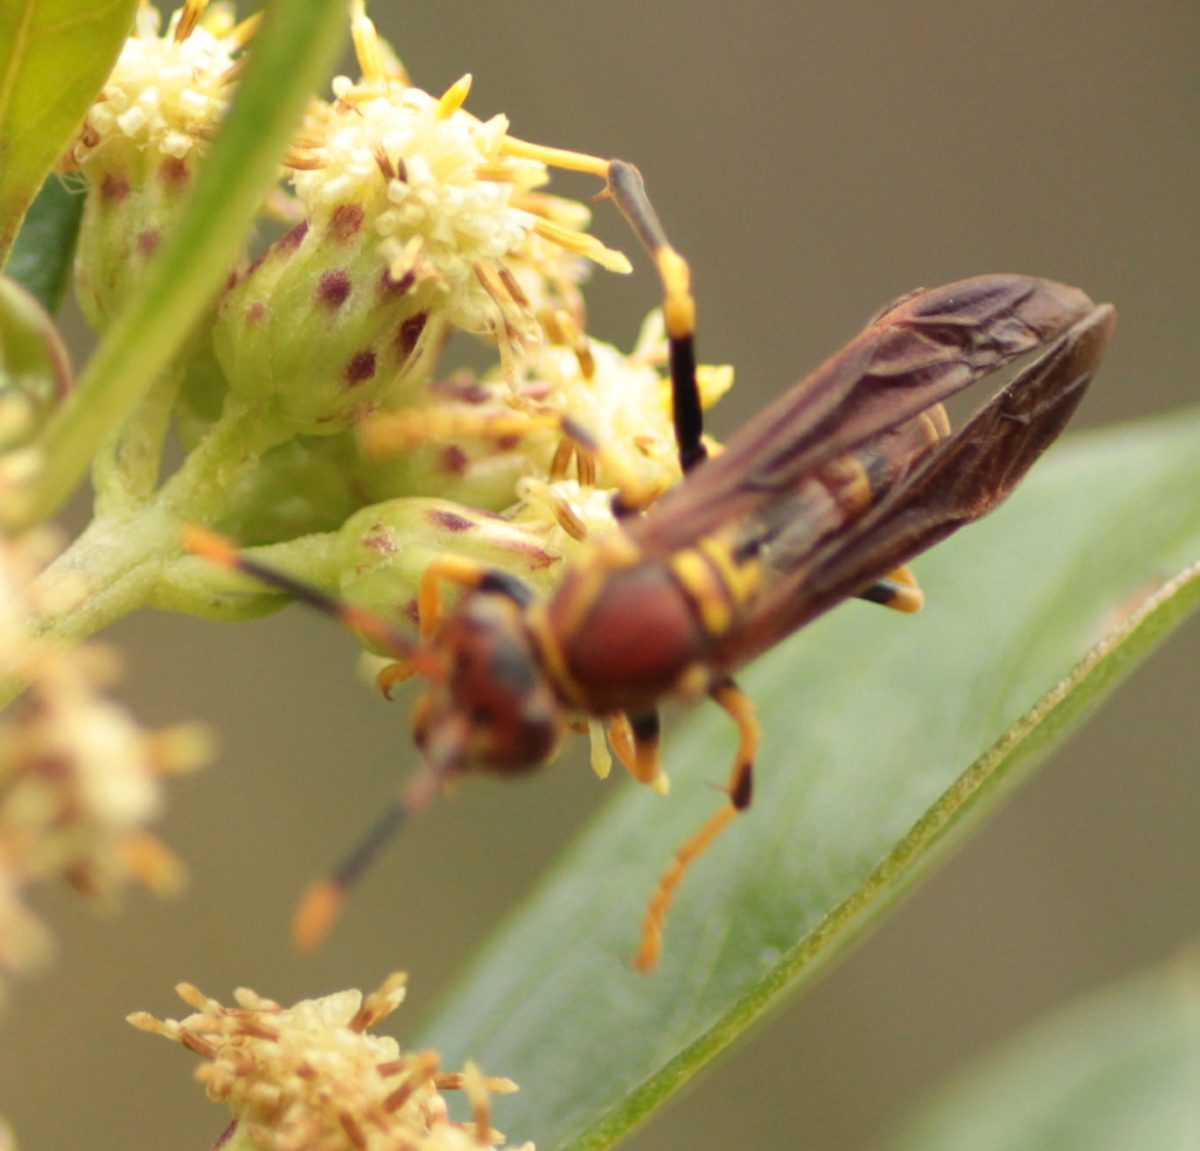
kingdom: Animalia
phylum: Arthropoda
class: Insecta
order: Hymenoptera
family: Eumenidae
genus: Polistes
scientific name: Polistes instabilis
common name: Unstable paper wasp
